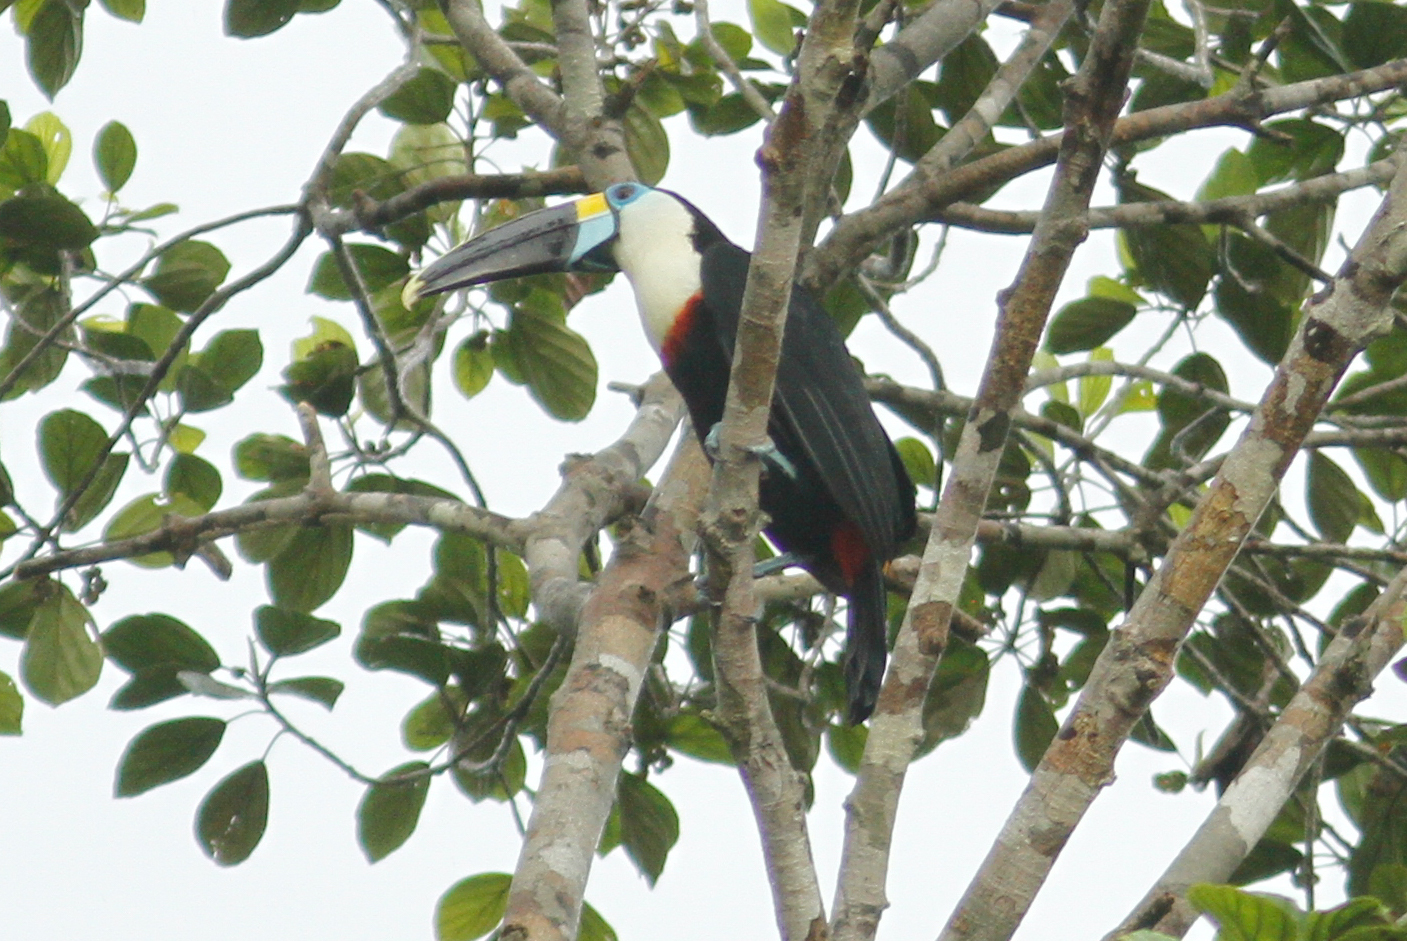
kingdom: Animalia
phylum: Chordata
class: Aves
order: Piciformes
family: Ramphastidae
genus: Ramphastos
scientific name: Ramphastos tucanus
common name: White-throated toucan
